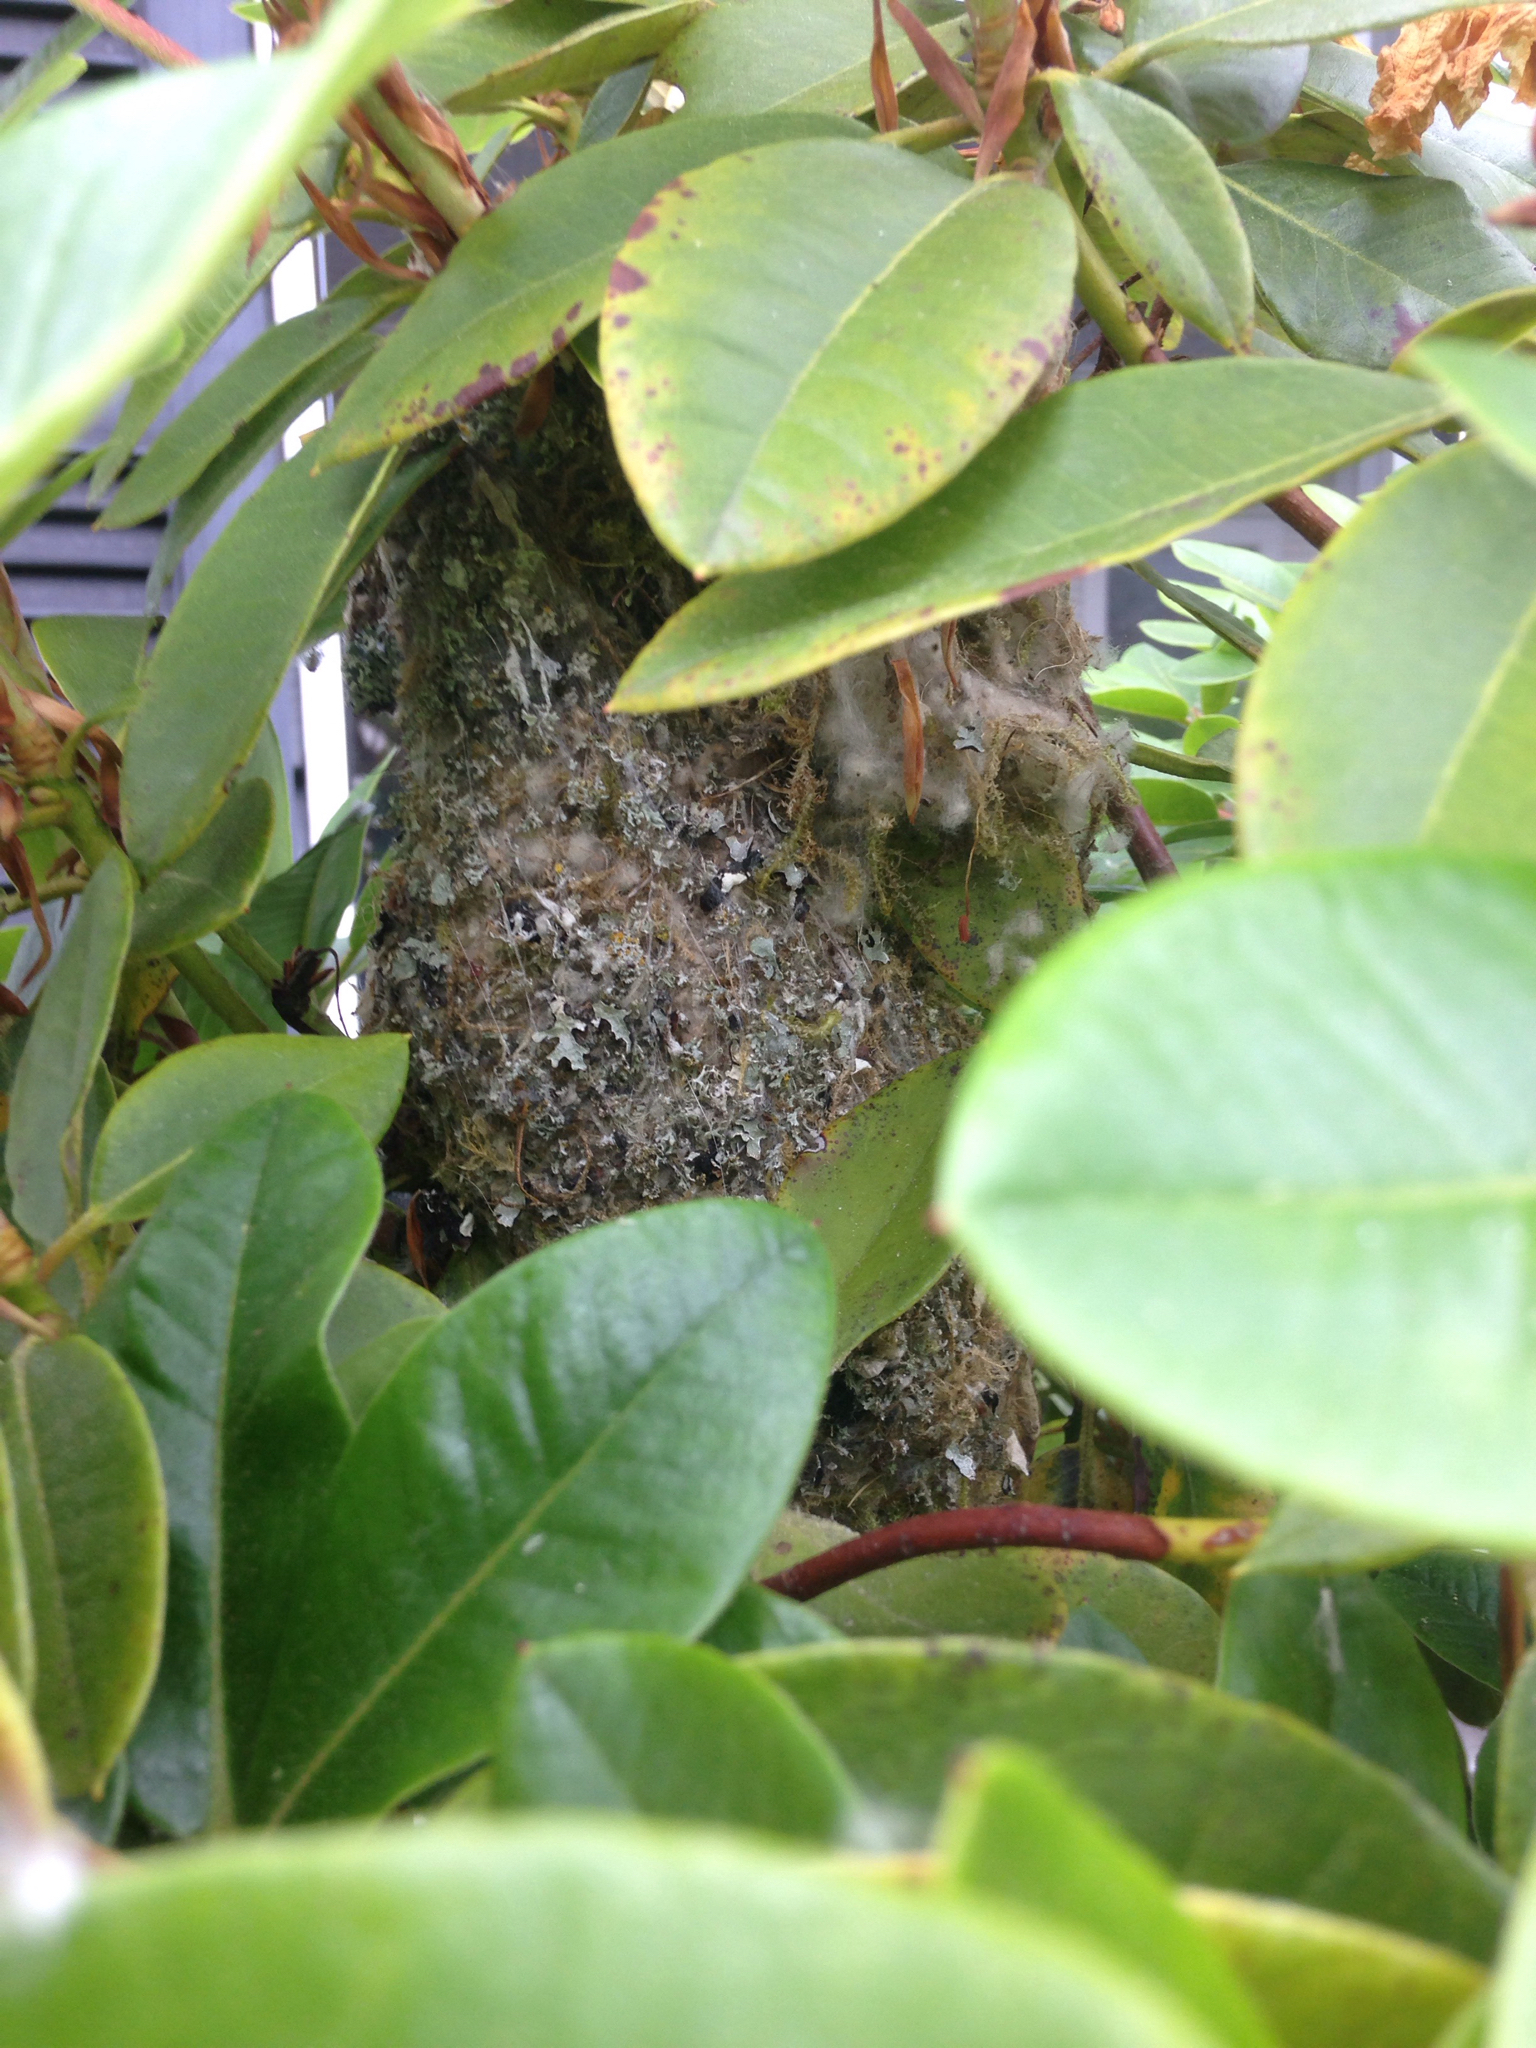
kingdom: Animalia
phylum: Chordata
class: Aves
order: Passeriformes
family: Aegithalidae
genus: Psaltriparus
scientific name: Psaltriparus minimus
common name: American bushtit
